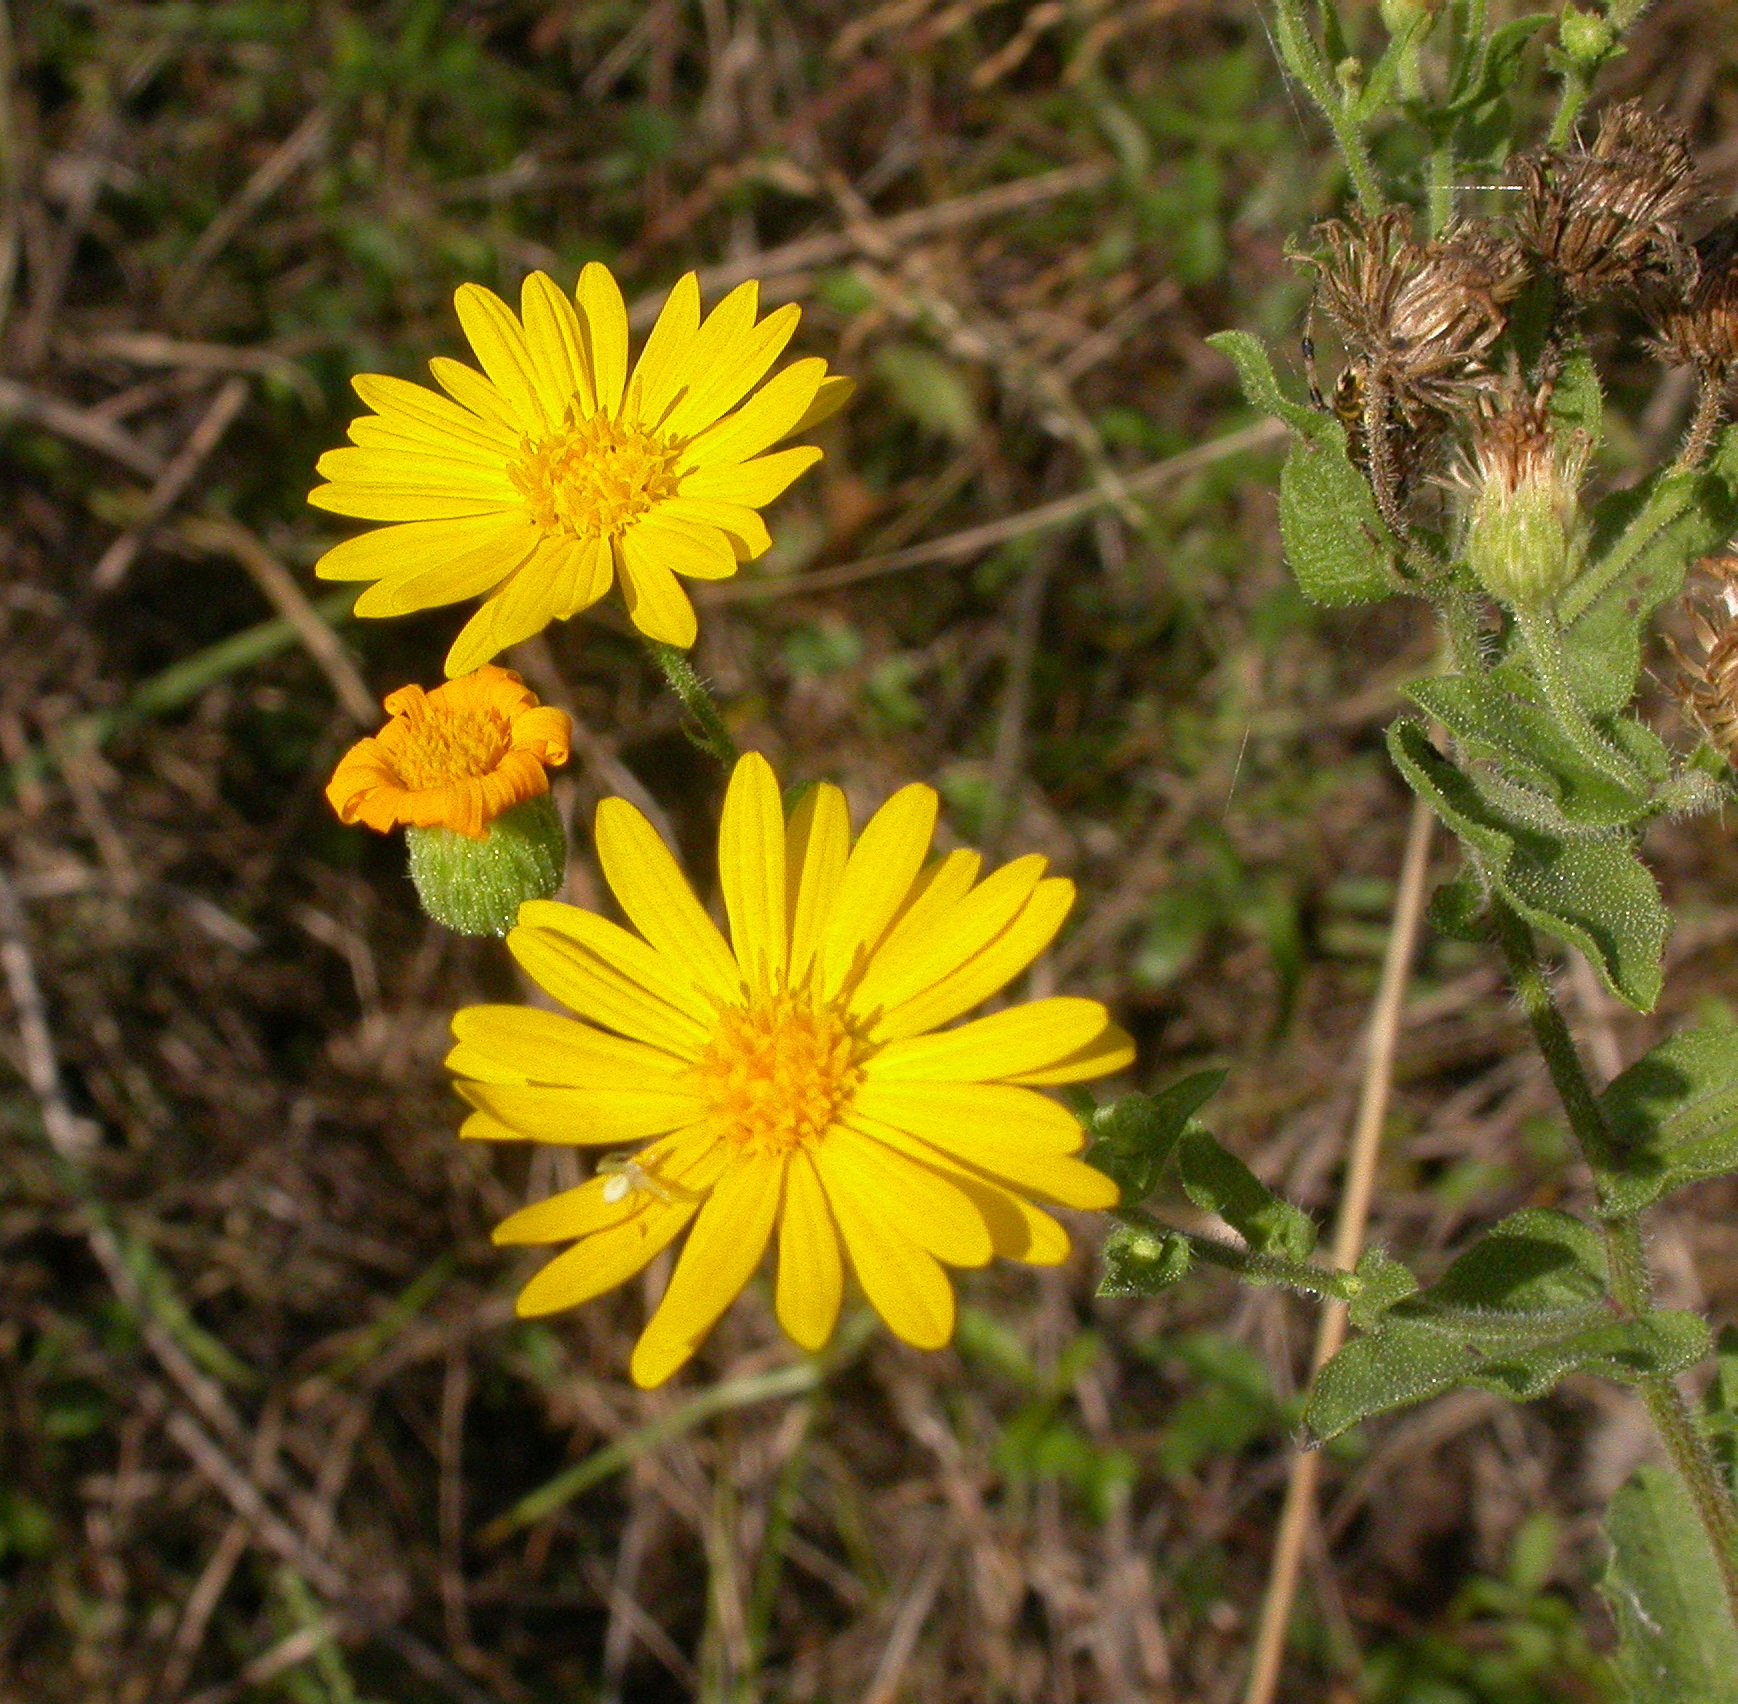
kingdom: Plantae
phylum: Tracheophyta
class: Magnoliopsida
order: Asterales
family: Asteraceae
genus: Heterotheca
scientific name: Heterotheca subaxillaris
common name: Camphorweed
